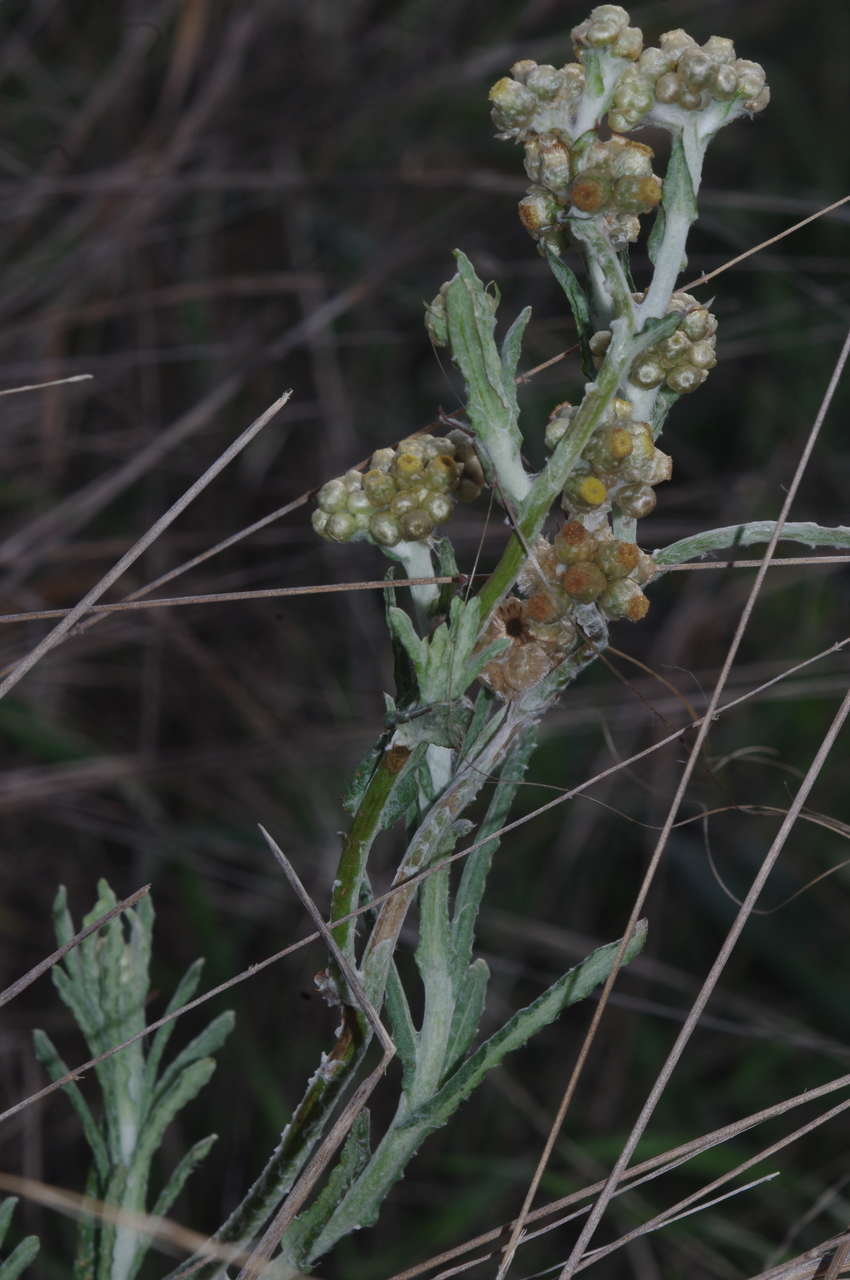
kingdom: Plantae
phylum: Tracheophyta
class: Magnoliopsida
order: Asterales
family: Asteraceae
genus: Helichrysum
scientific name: Helichrysum luteoalbum
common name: Daisy
